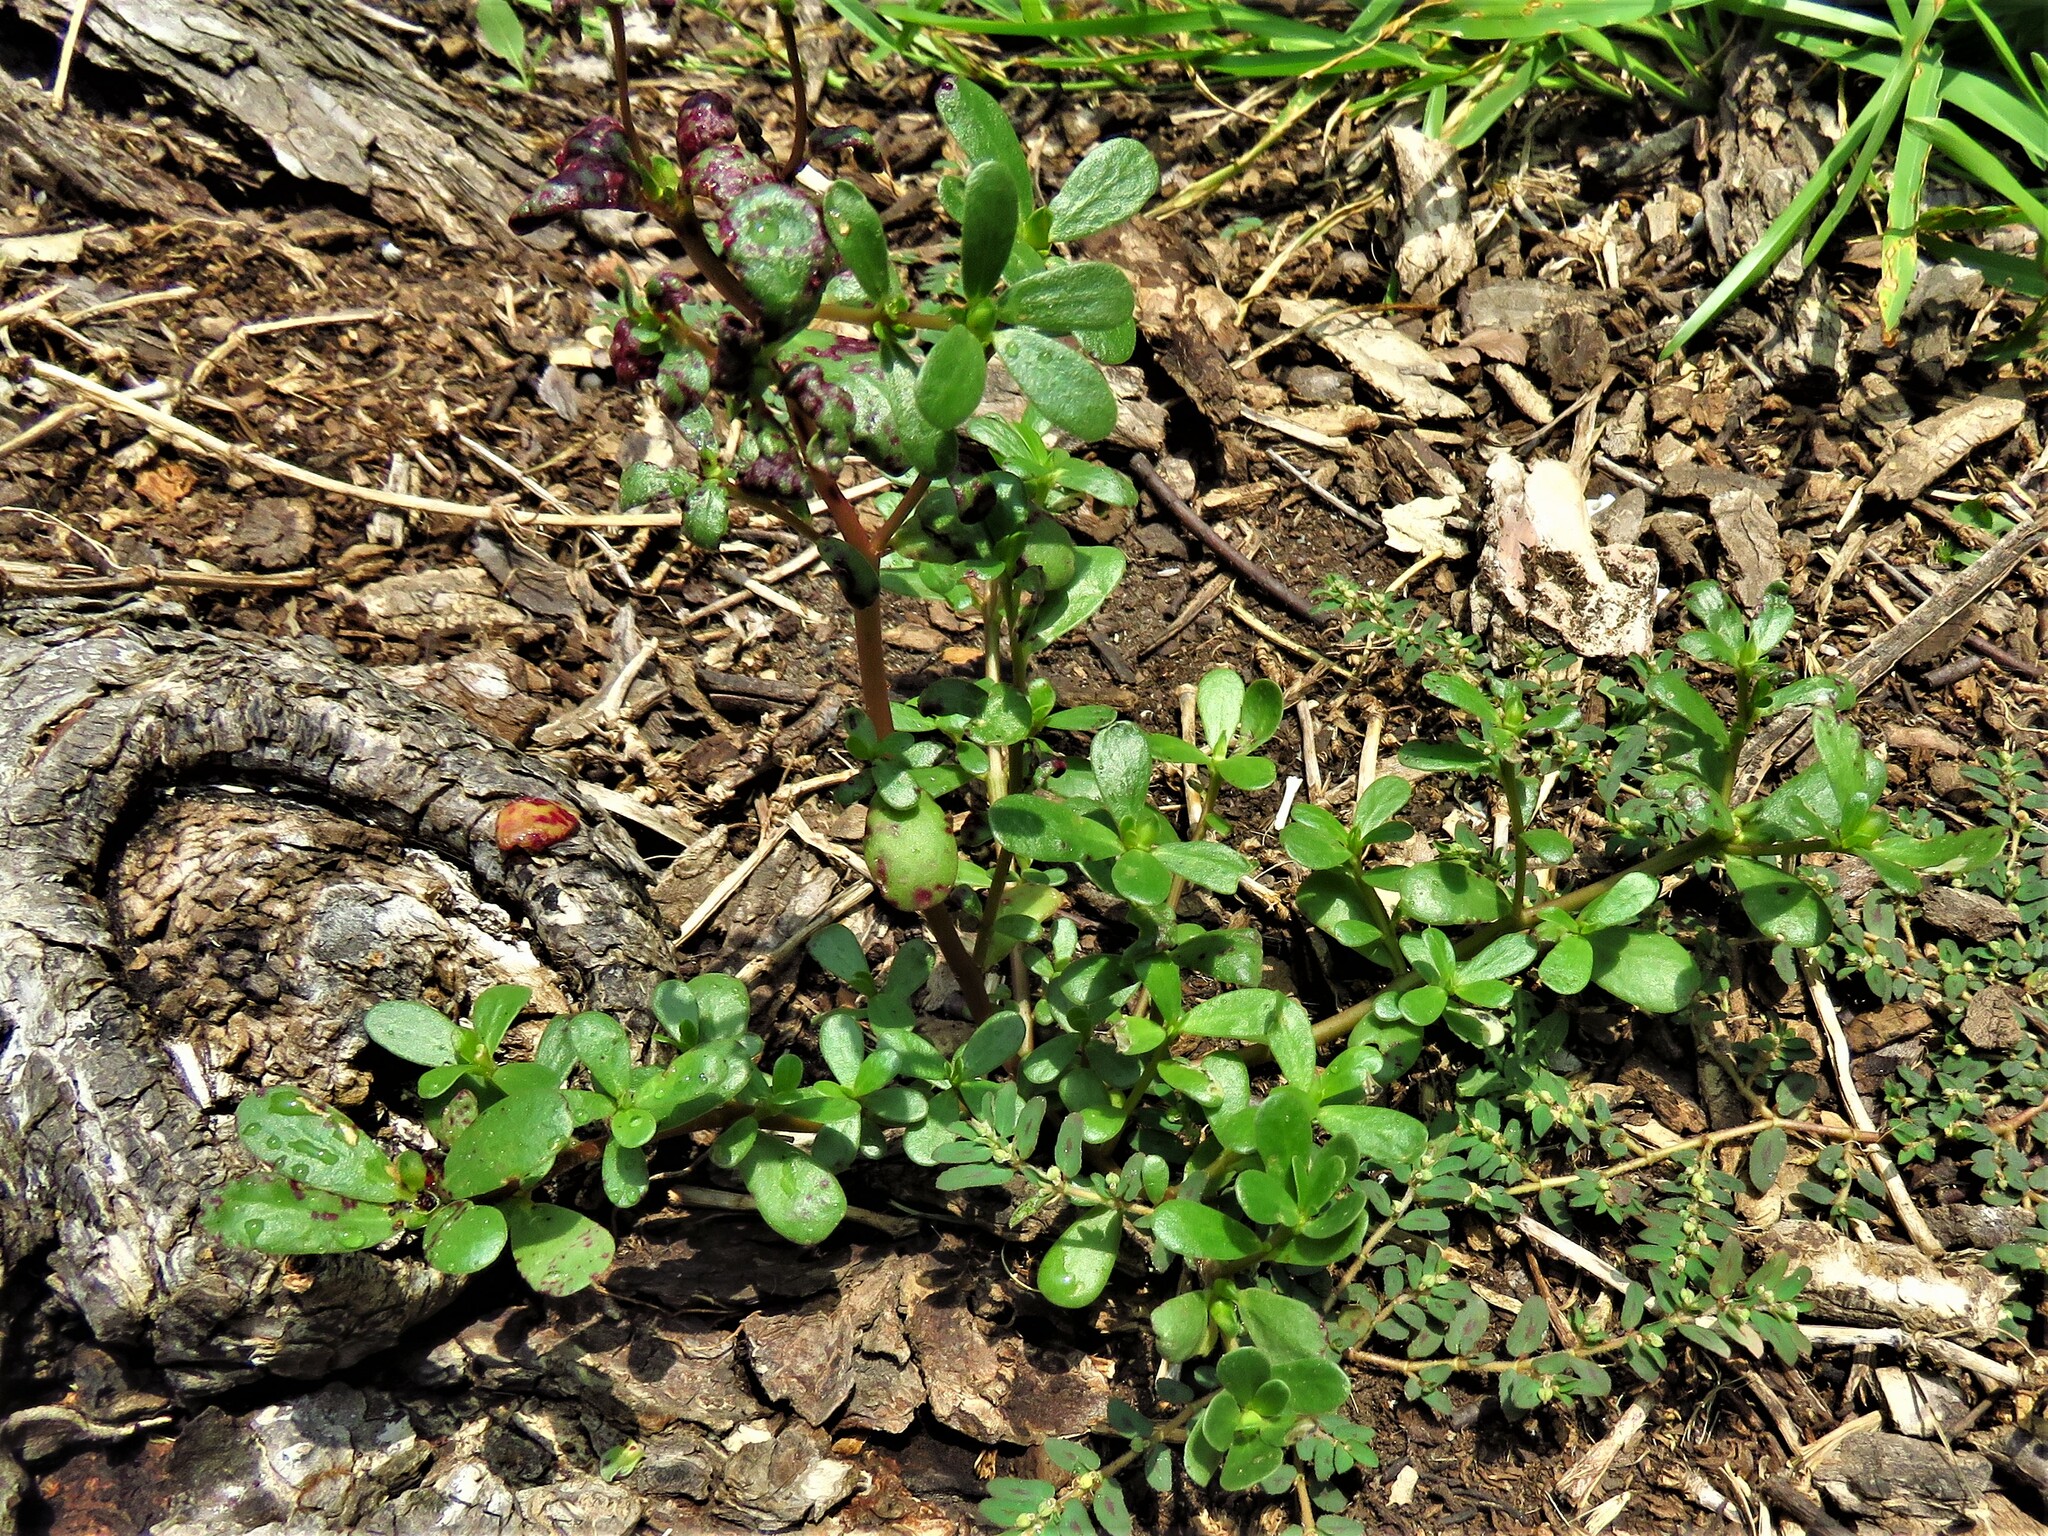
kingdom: Plantae
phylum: Tracheophyta
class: Magnoliopsida
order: Caryophyllales
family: Portulacaceae
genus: Portulaca
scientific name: Portulaca oleracea
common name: Common purslane
